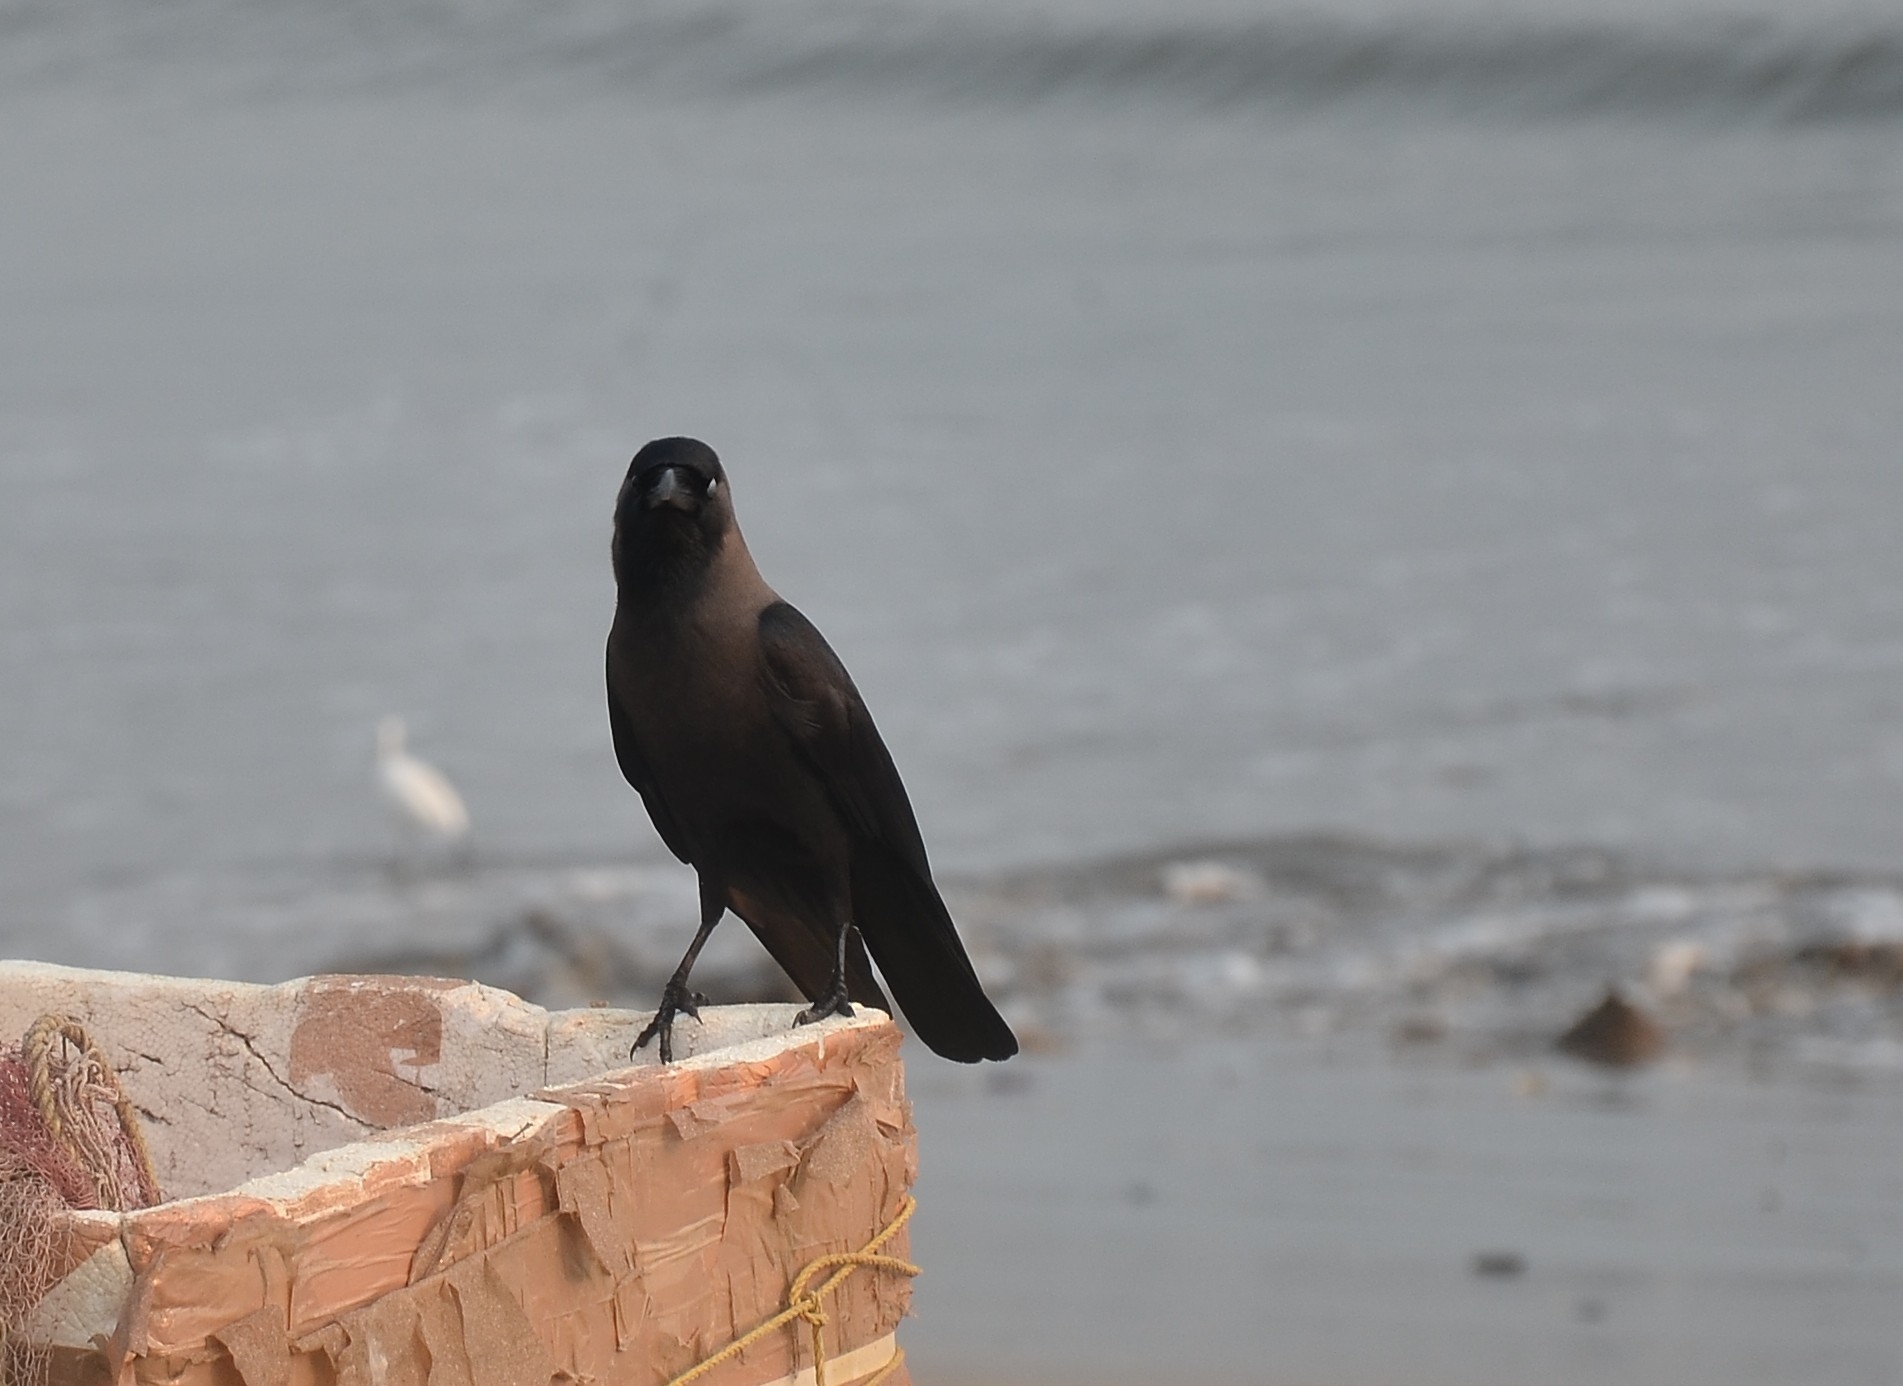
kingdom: Animalia
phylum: Chordata
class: Aves
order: Passeriformes
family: Corvidae
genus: Corvus
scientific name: Corvus splendens
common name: House crow
